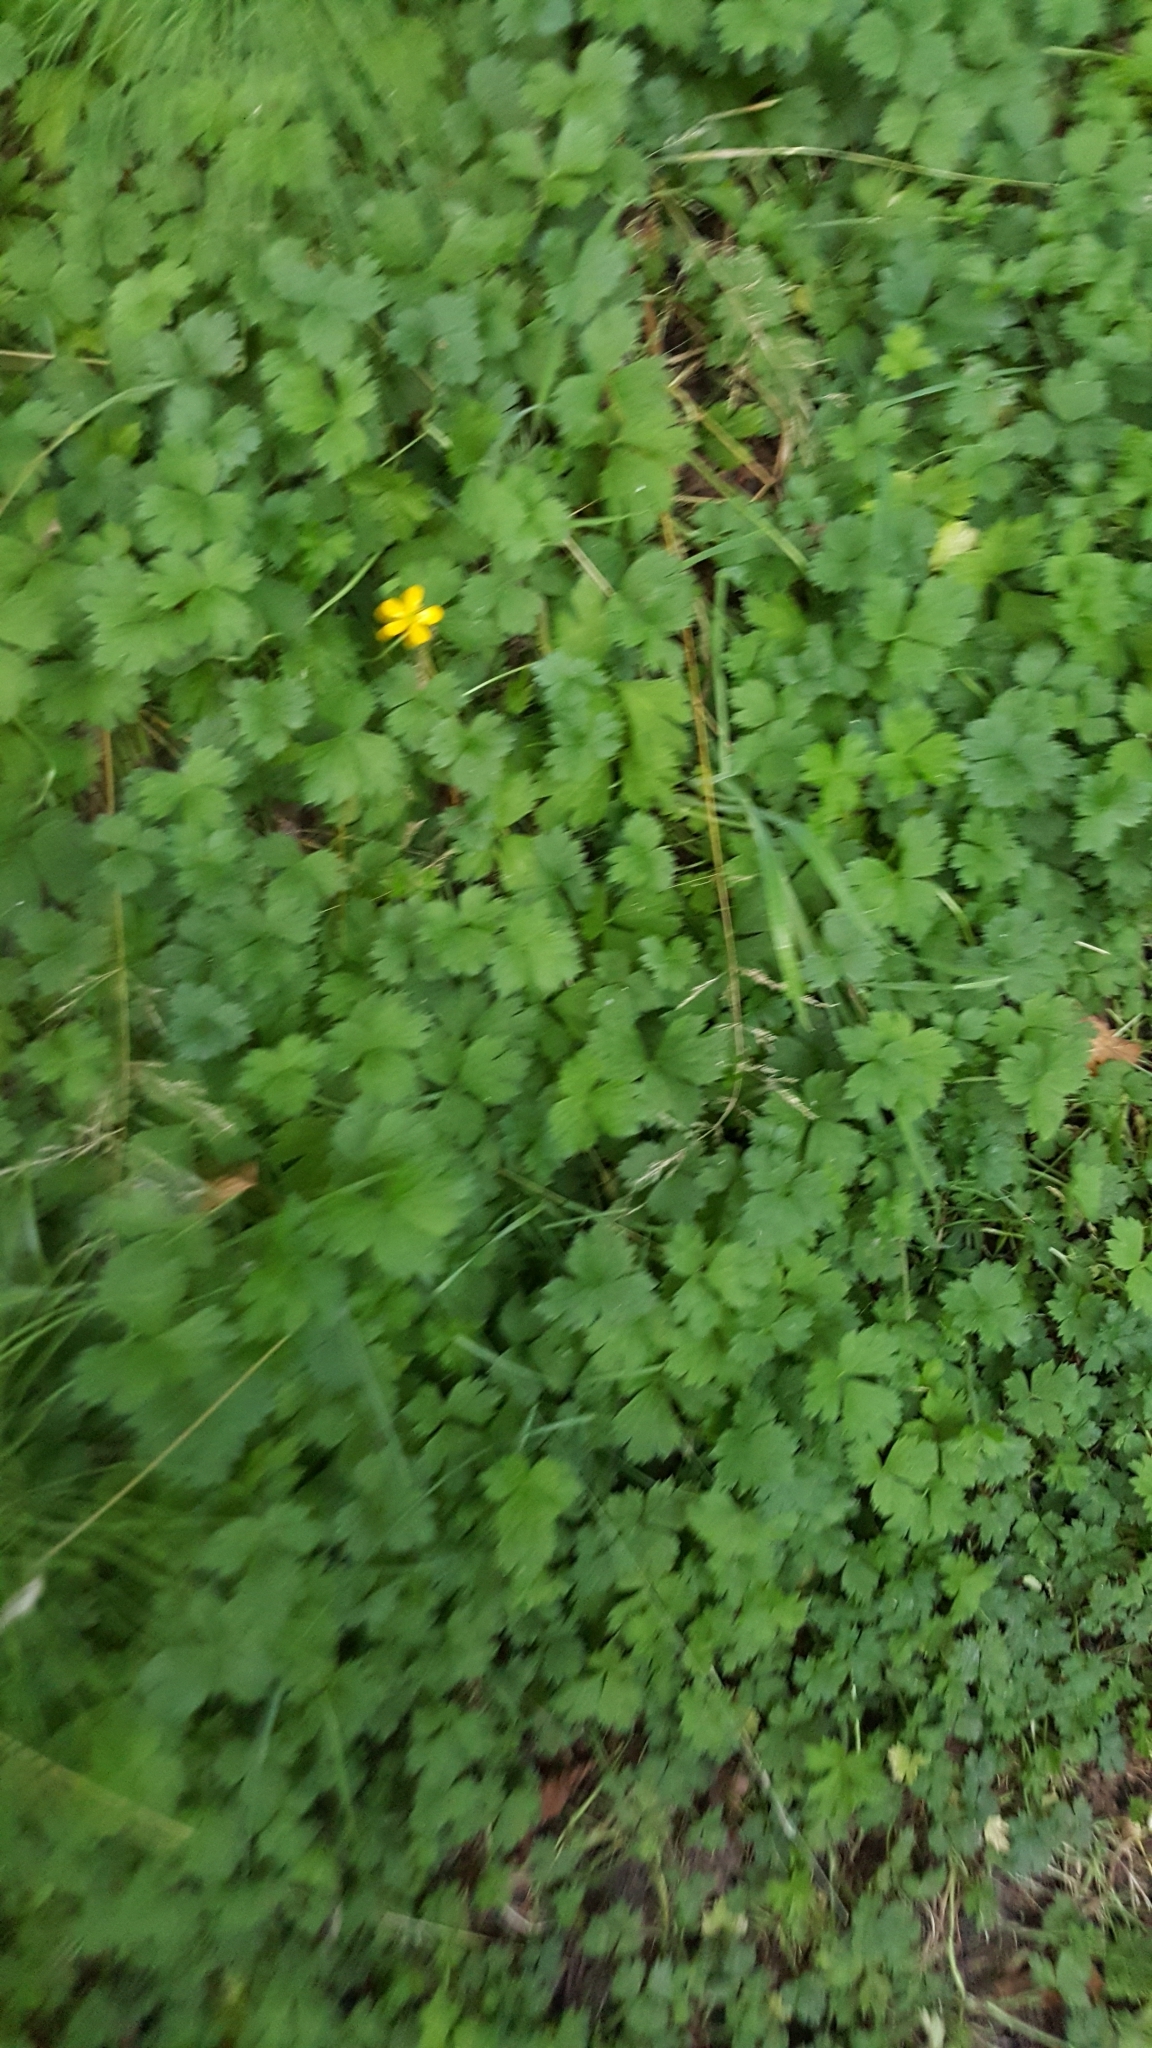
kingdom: Plantae
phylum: Tracheophyta
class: Magnoliopsida
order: Ranunculales
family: Ranunculaceae
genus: Ranunculus
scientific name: Ranunculus repens
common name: Creeping buttercup
